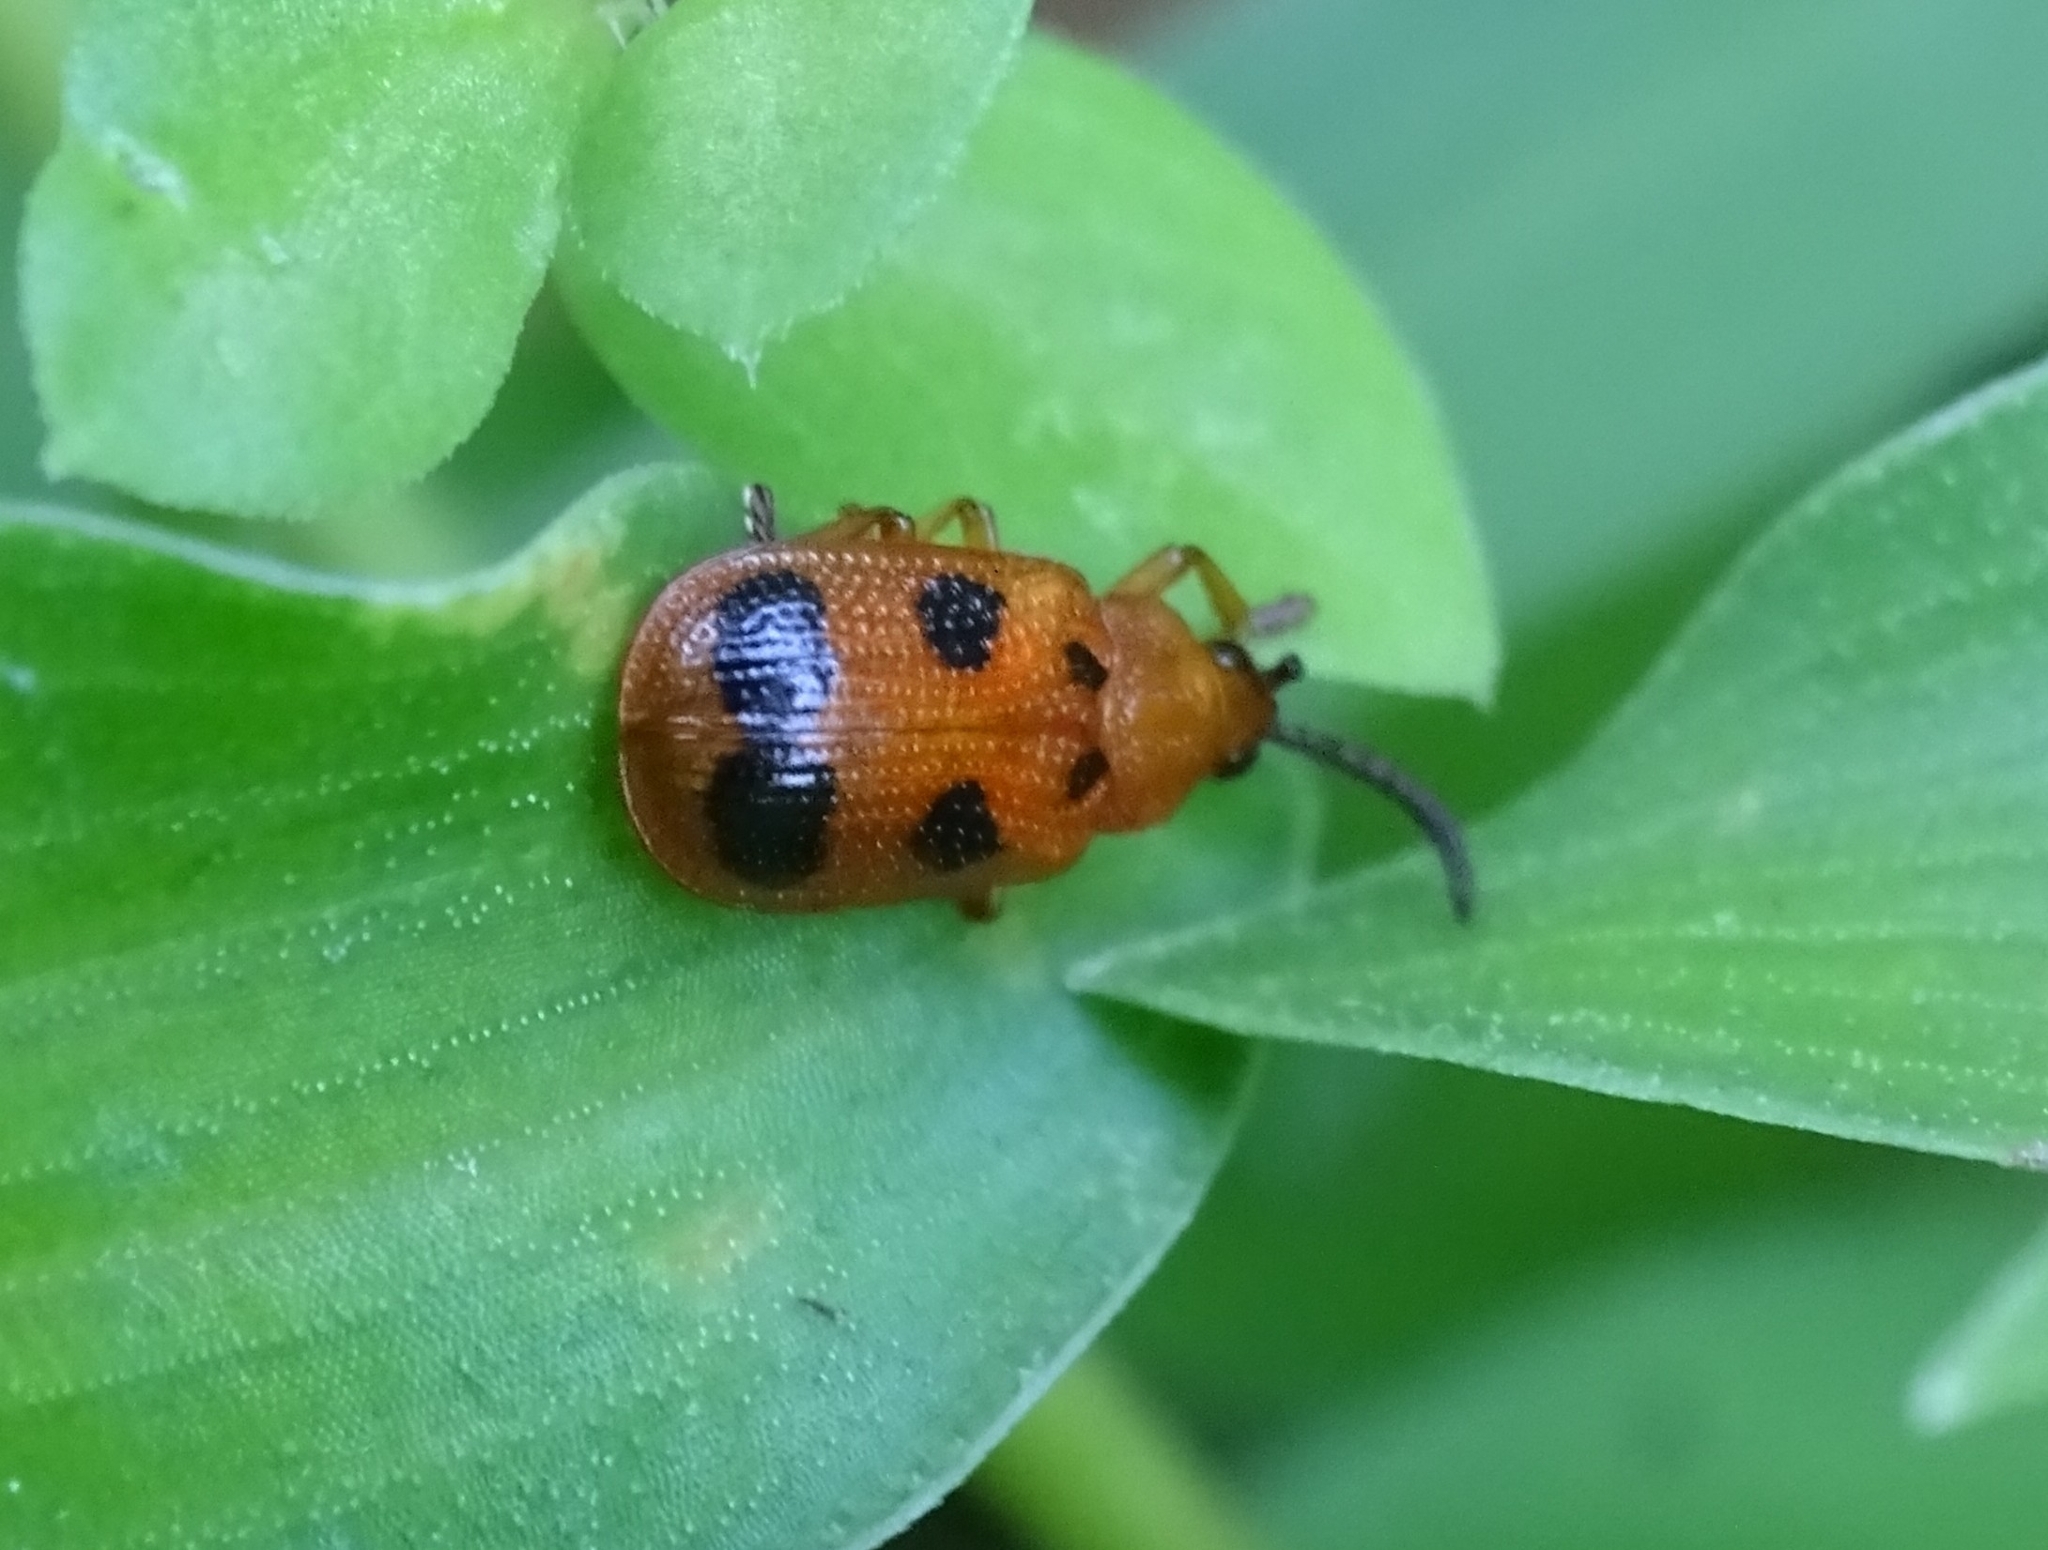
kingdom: Animalia
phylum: Arthropoda
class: Insecta
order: Coleoptera
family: Chrysomelidae
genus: Callispa
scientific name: Callispa octopunctata
